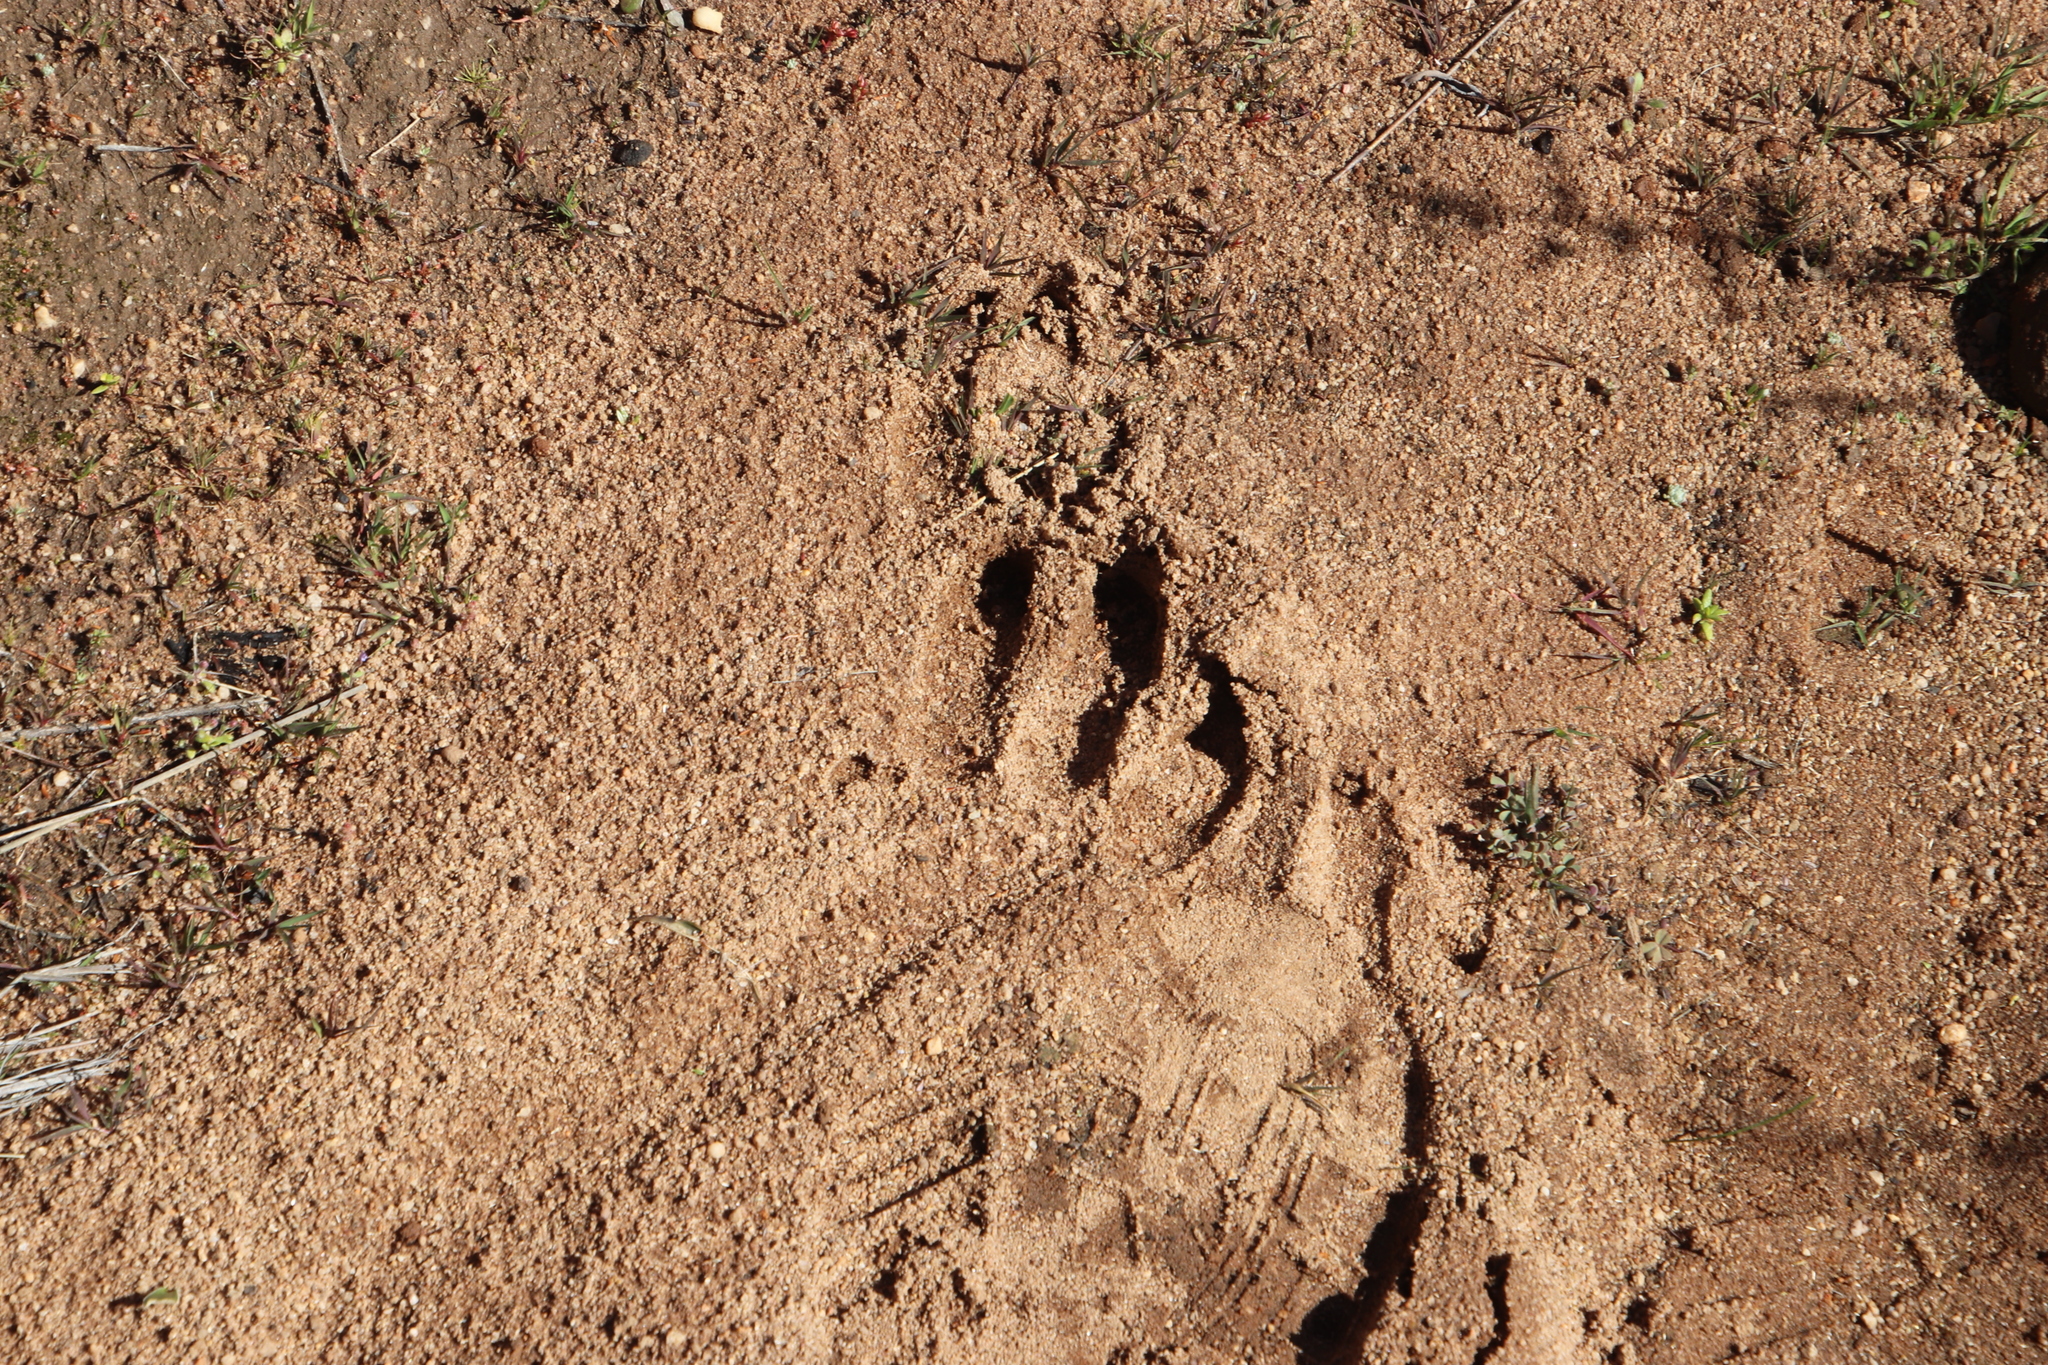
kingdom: Animalia
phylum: Chordata
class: Mammalia
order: Tubulidentata
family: Orycteropodidae
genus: Orycteropus
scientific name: Orycteropus afer
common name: Aardvark
